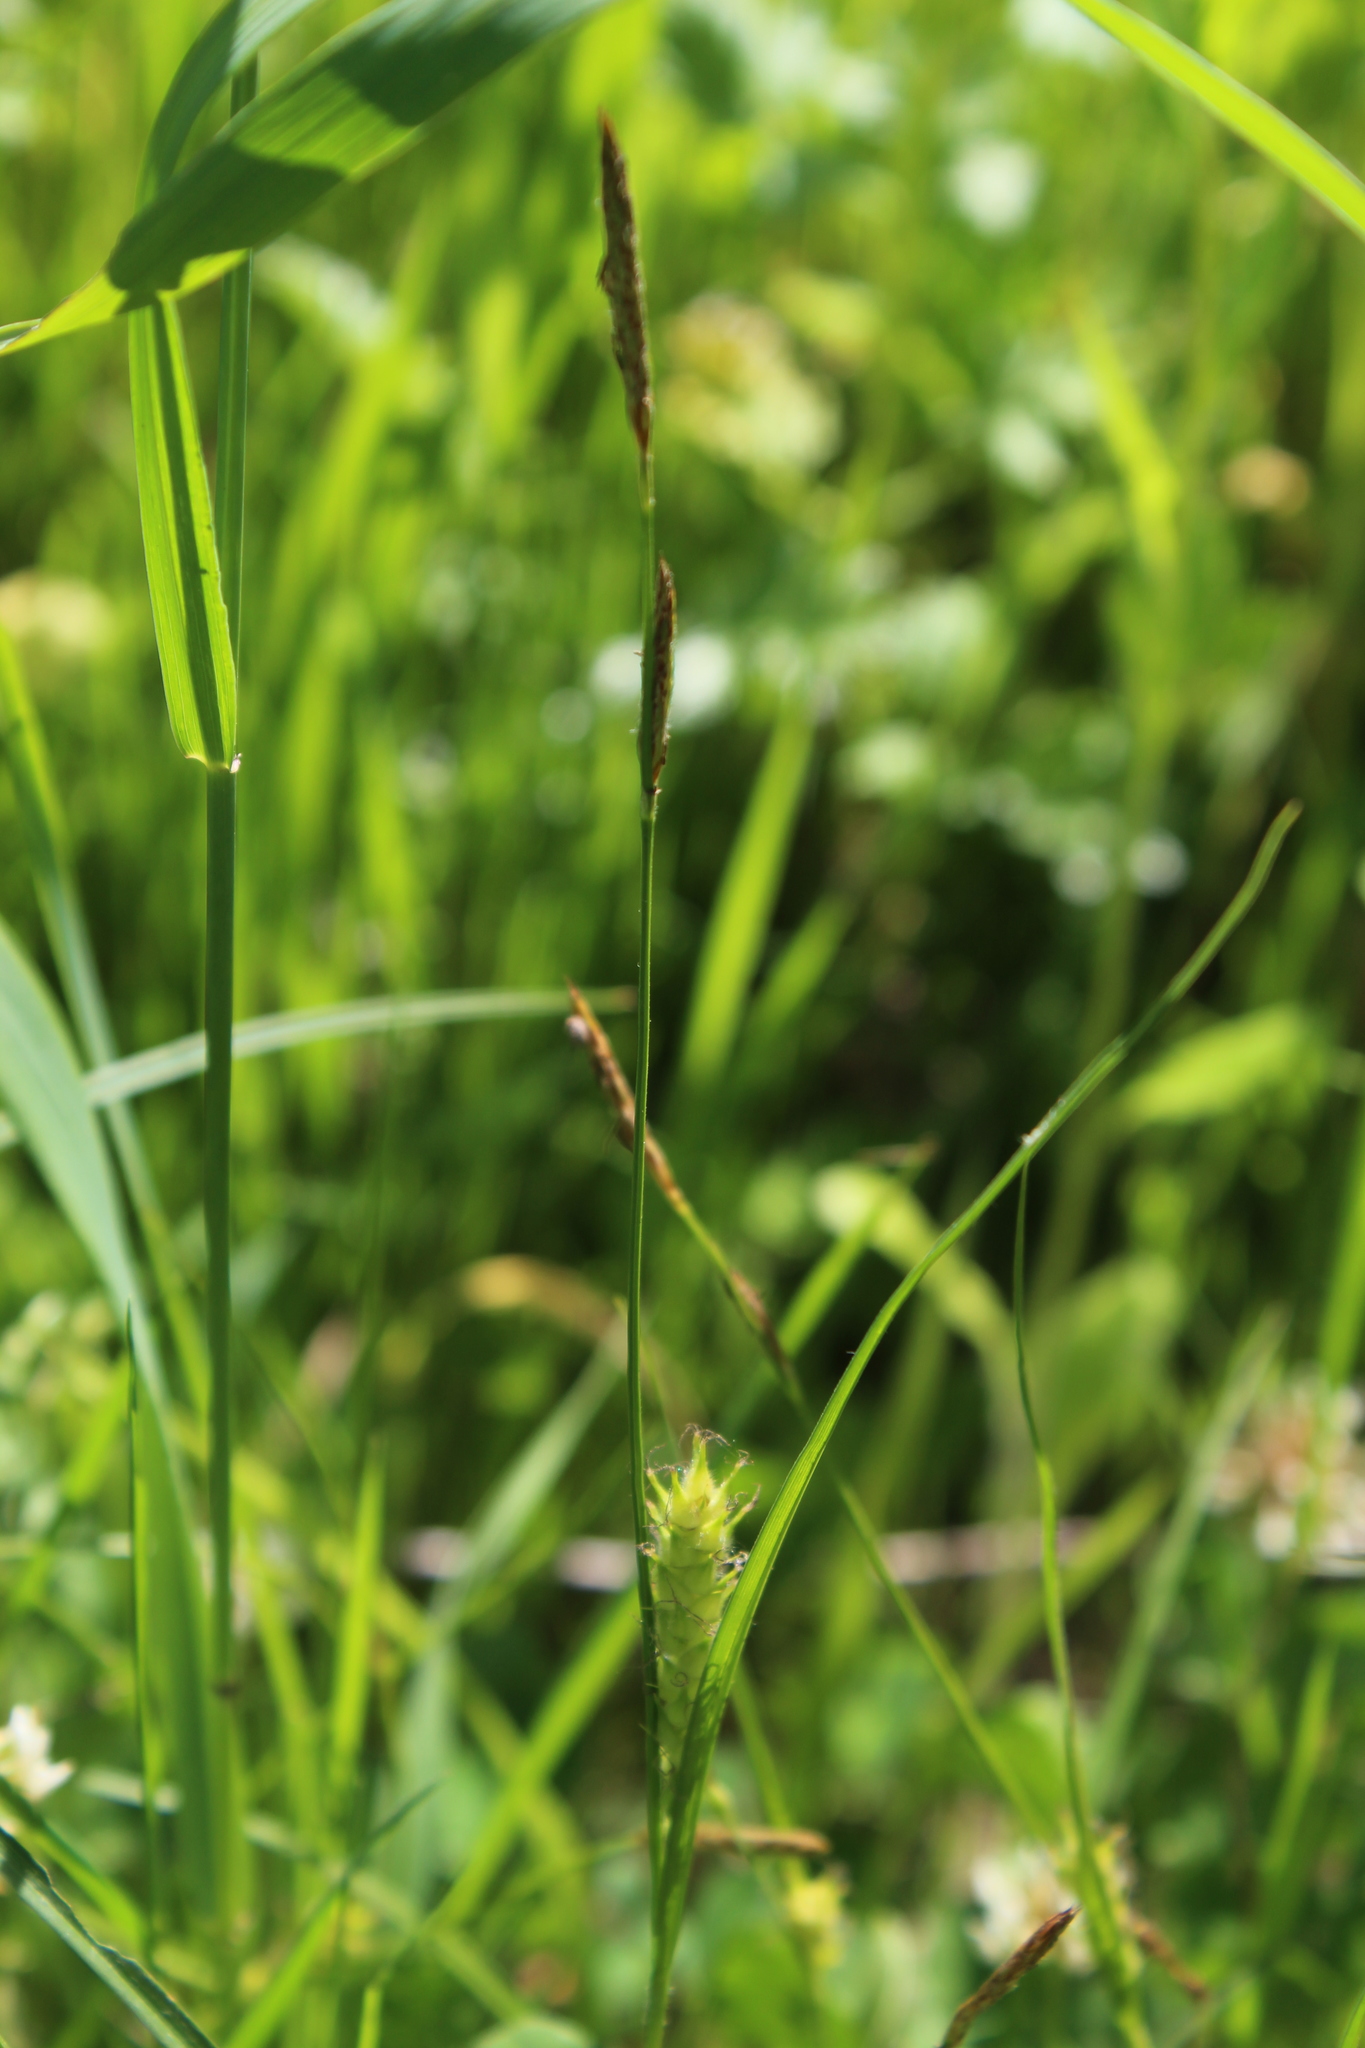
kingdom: Plantae
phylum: Tracheophyta
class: Liliopsida
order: Poales
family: Cyperaceae
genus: Carex
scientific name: Carex hirta
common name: Hairy sedge
